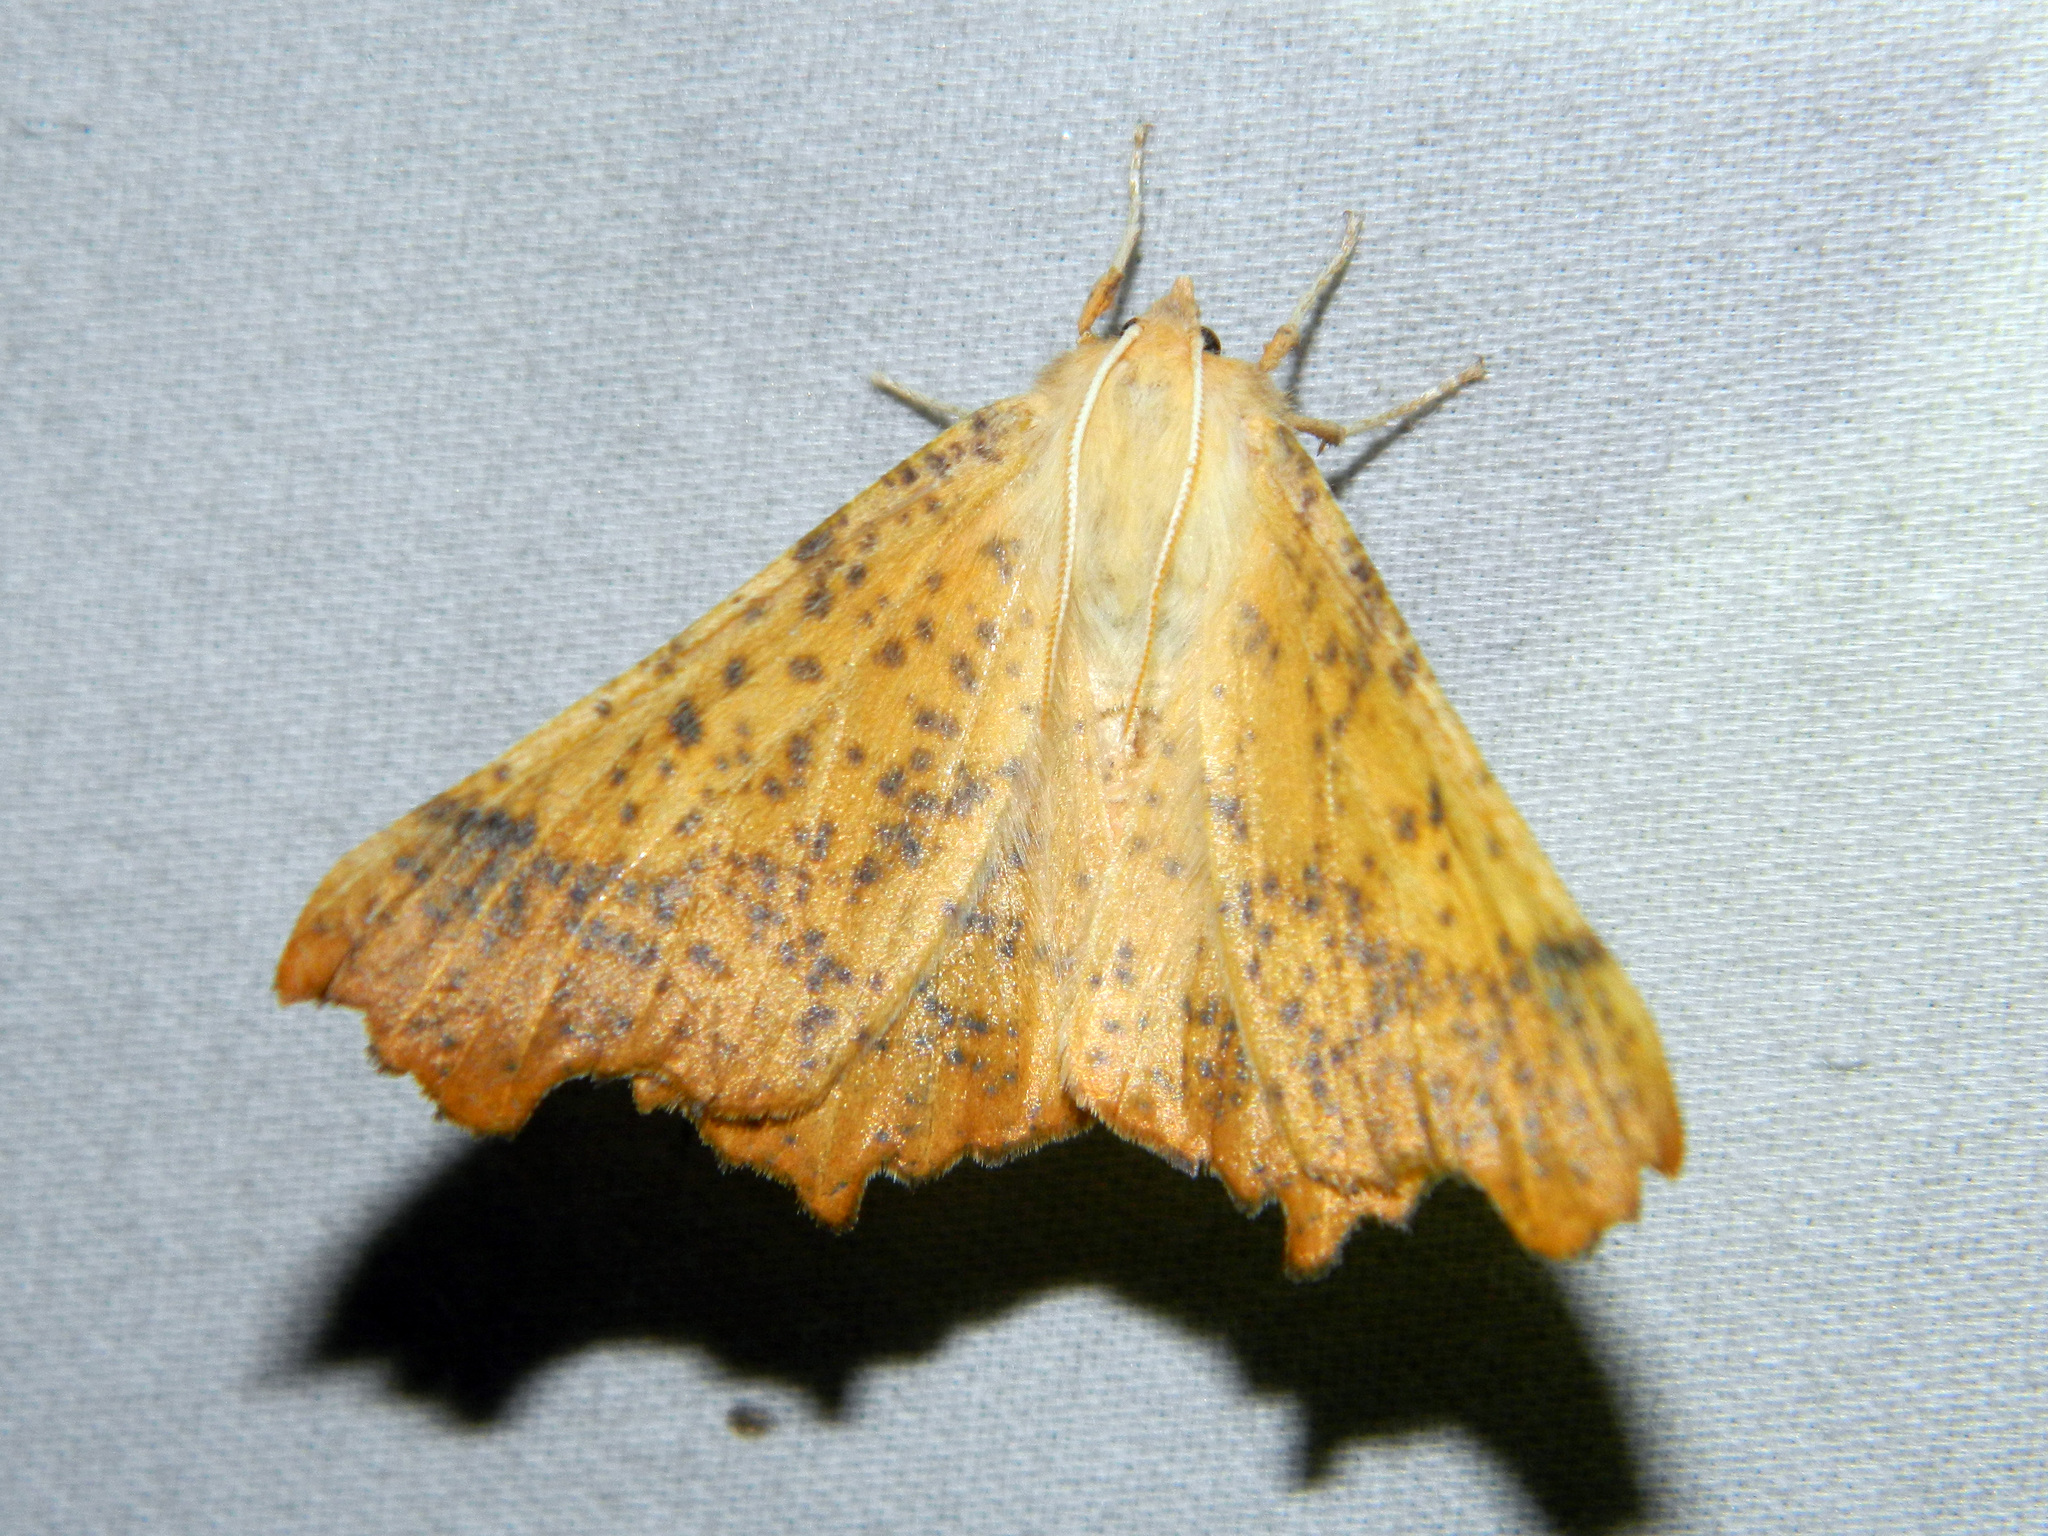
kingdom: Animalia
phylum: Arthropoda
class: Insecta
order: Lepidoptera
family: Geometridae
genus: Ennomos
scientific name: Ennomos magnaria
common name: Maple spanworm
